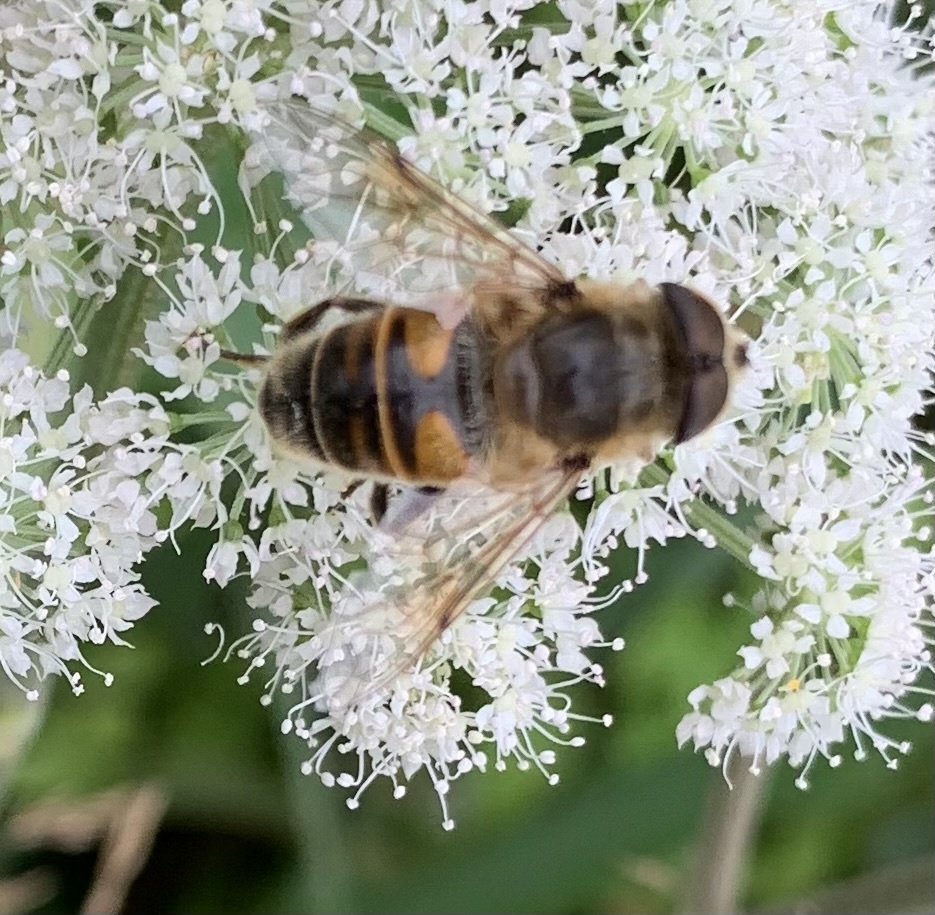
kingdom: Animalia
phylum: Arthropoda
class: Insecta
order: Diptera
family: Syrphidae
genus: Eristalis
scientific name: Eristalis tenax
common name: Drone fly
